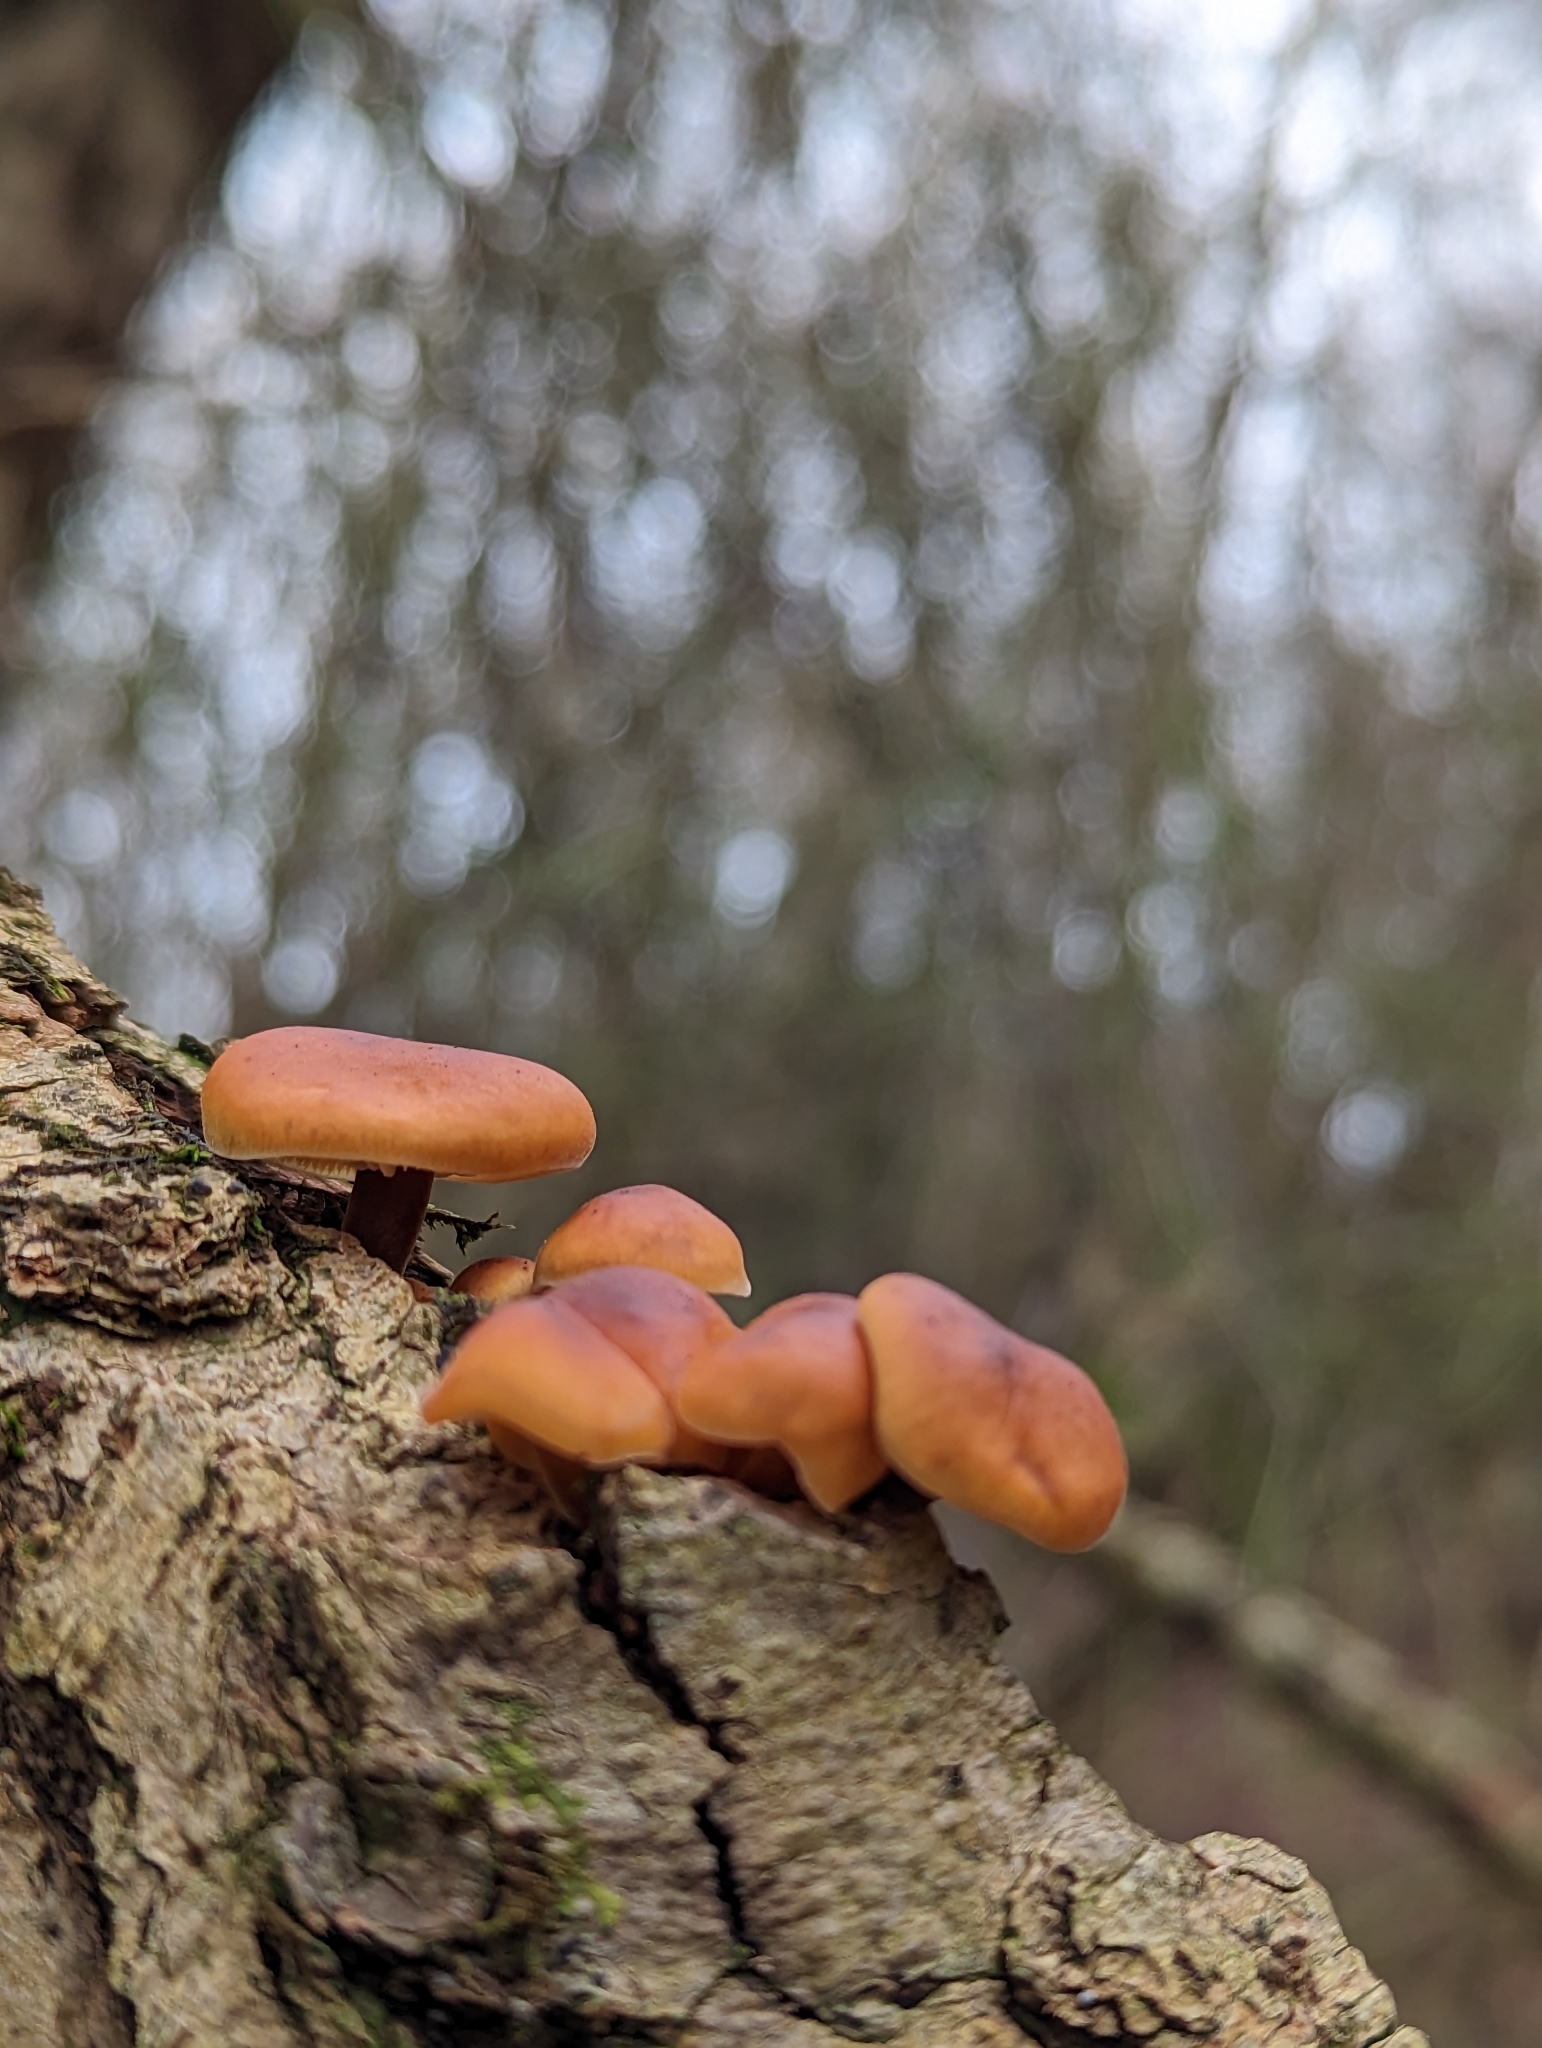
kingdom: Fungi
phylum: Basidiomycota
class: Agaricomycetes
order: Agaricales
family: Physalacriaceae
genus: Flammulina
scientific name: Flammulina
